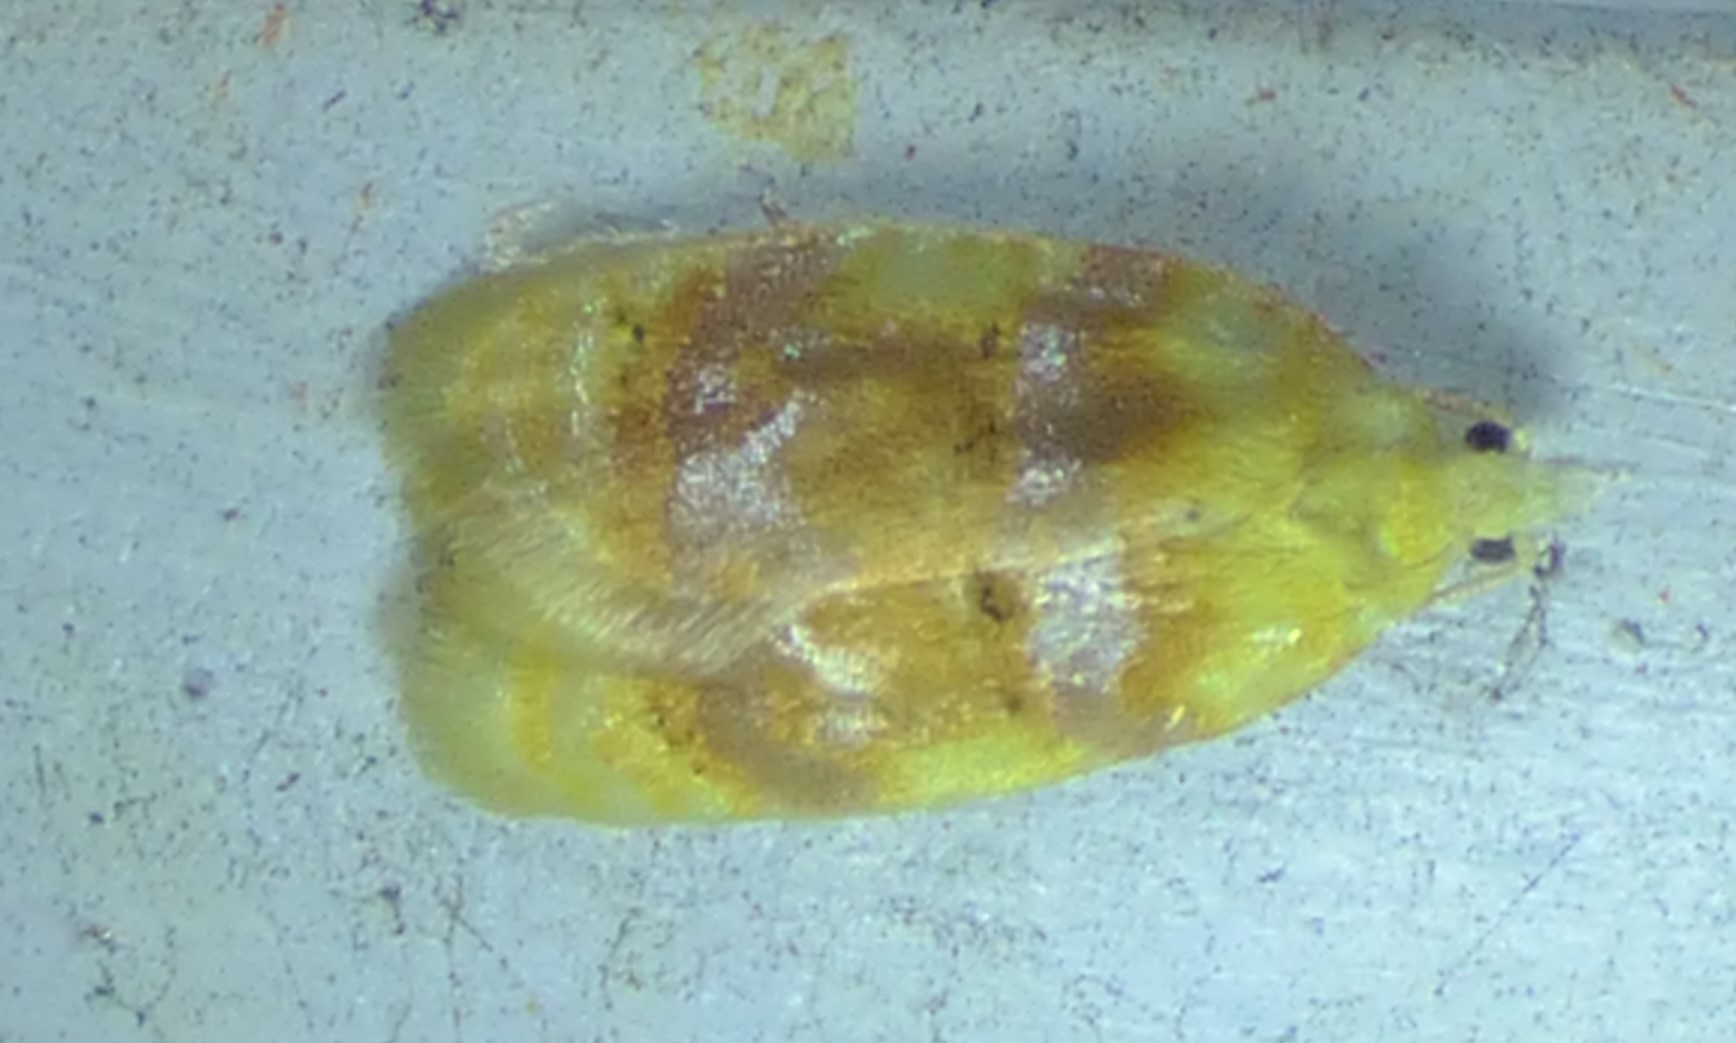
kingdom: Animalia
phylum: Arthropoda
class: Insecta
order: Lepidoptera
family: Tortricidae
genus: Acleris
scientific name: Acleris semipurpurana
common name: Oak leaftier moth
